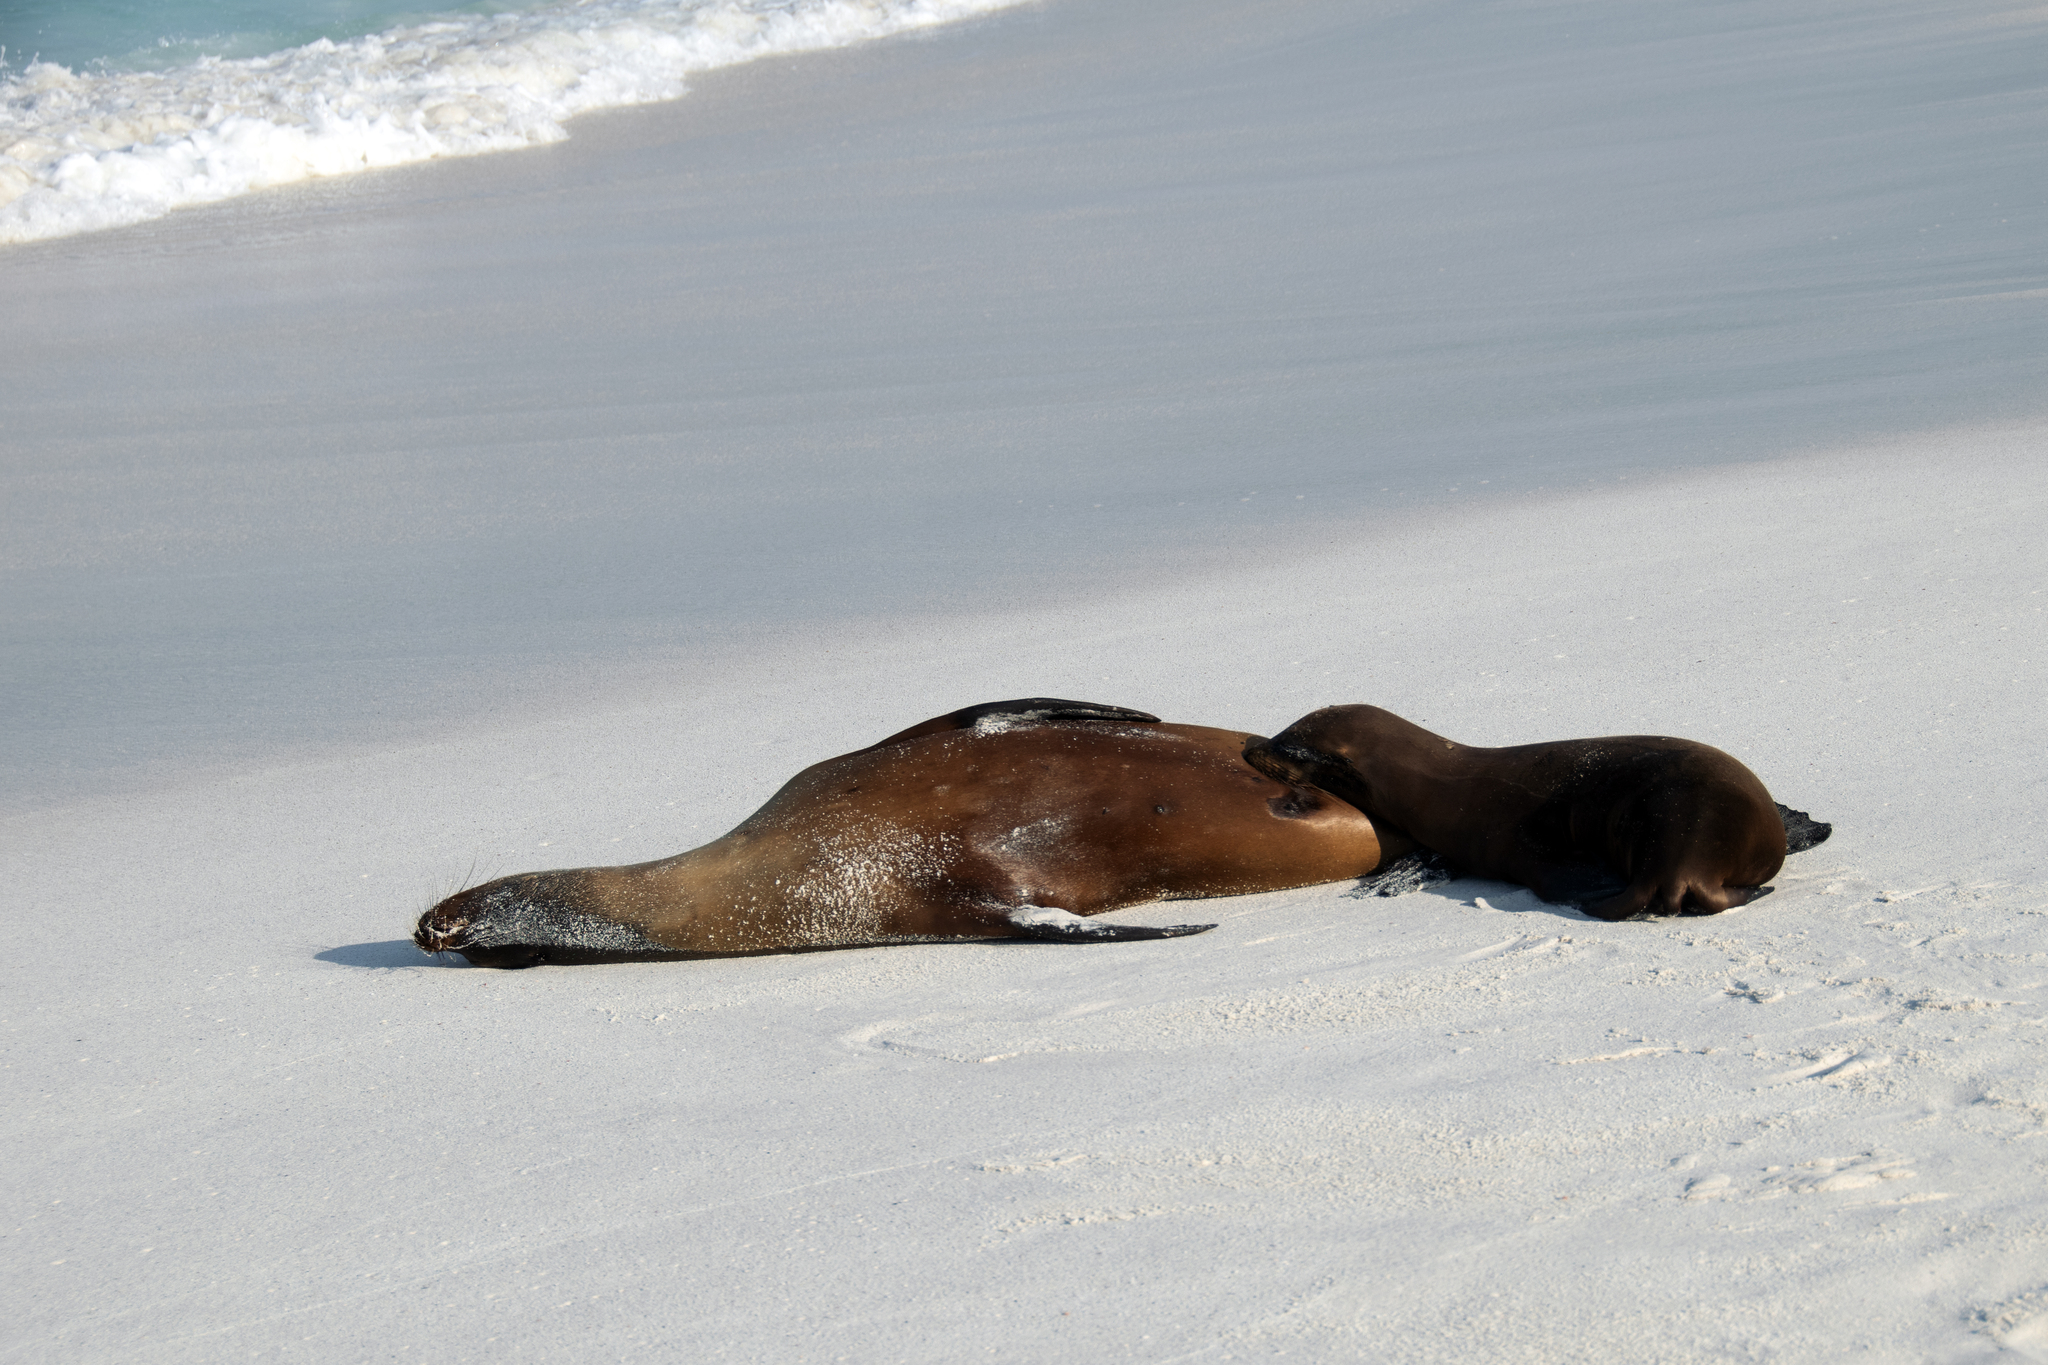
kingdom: Animalia
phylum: Chordata
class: Mammalia
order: Carnivora
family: Otariidae
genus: Zalophus
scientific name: Zalophus wollebaeki
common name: Galapagos sea lion
